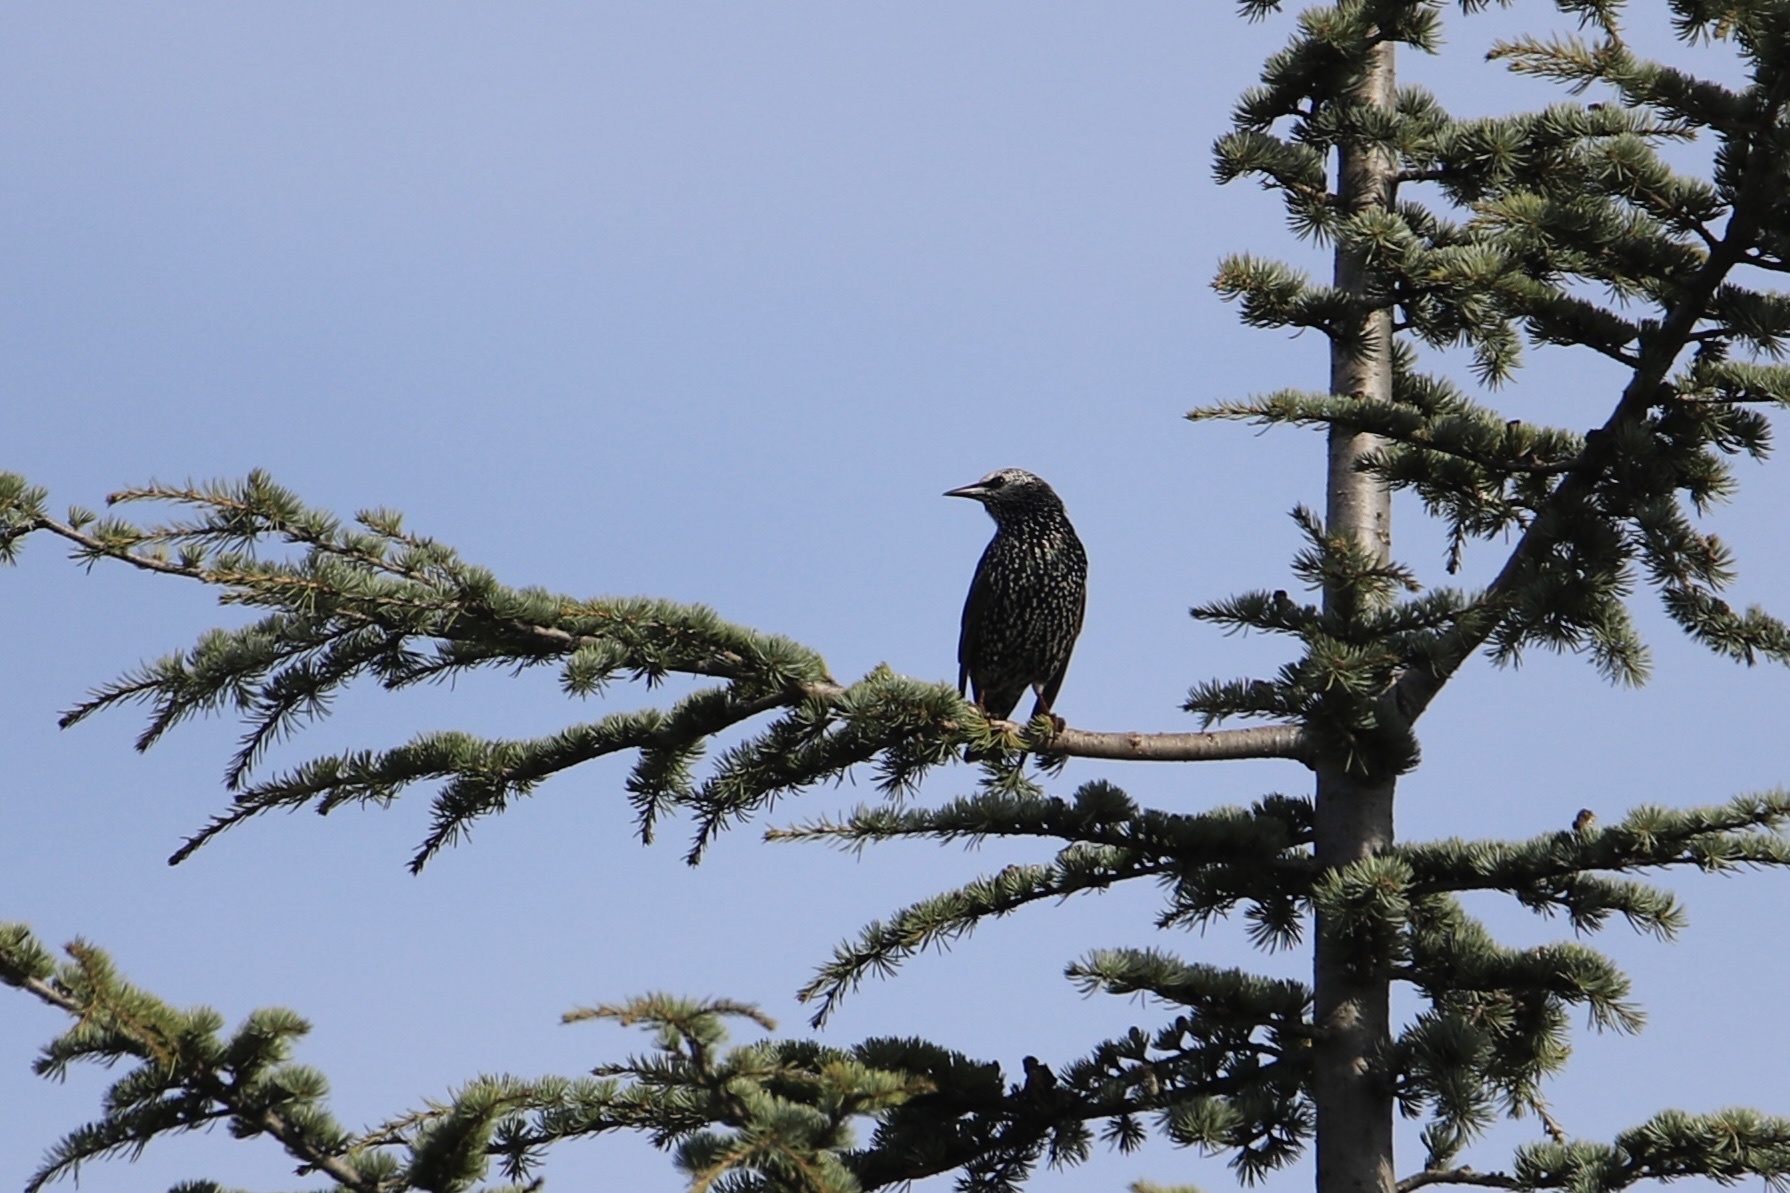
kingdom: Animalia
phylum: Chordata
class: Aves
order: Passeriformes
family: Sturnidae
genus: Sturnus
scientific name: Sturnus vulgaris
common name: Common starling
